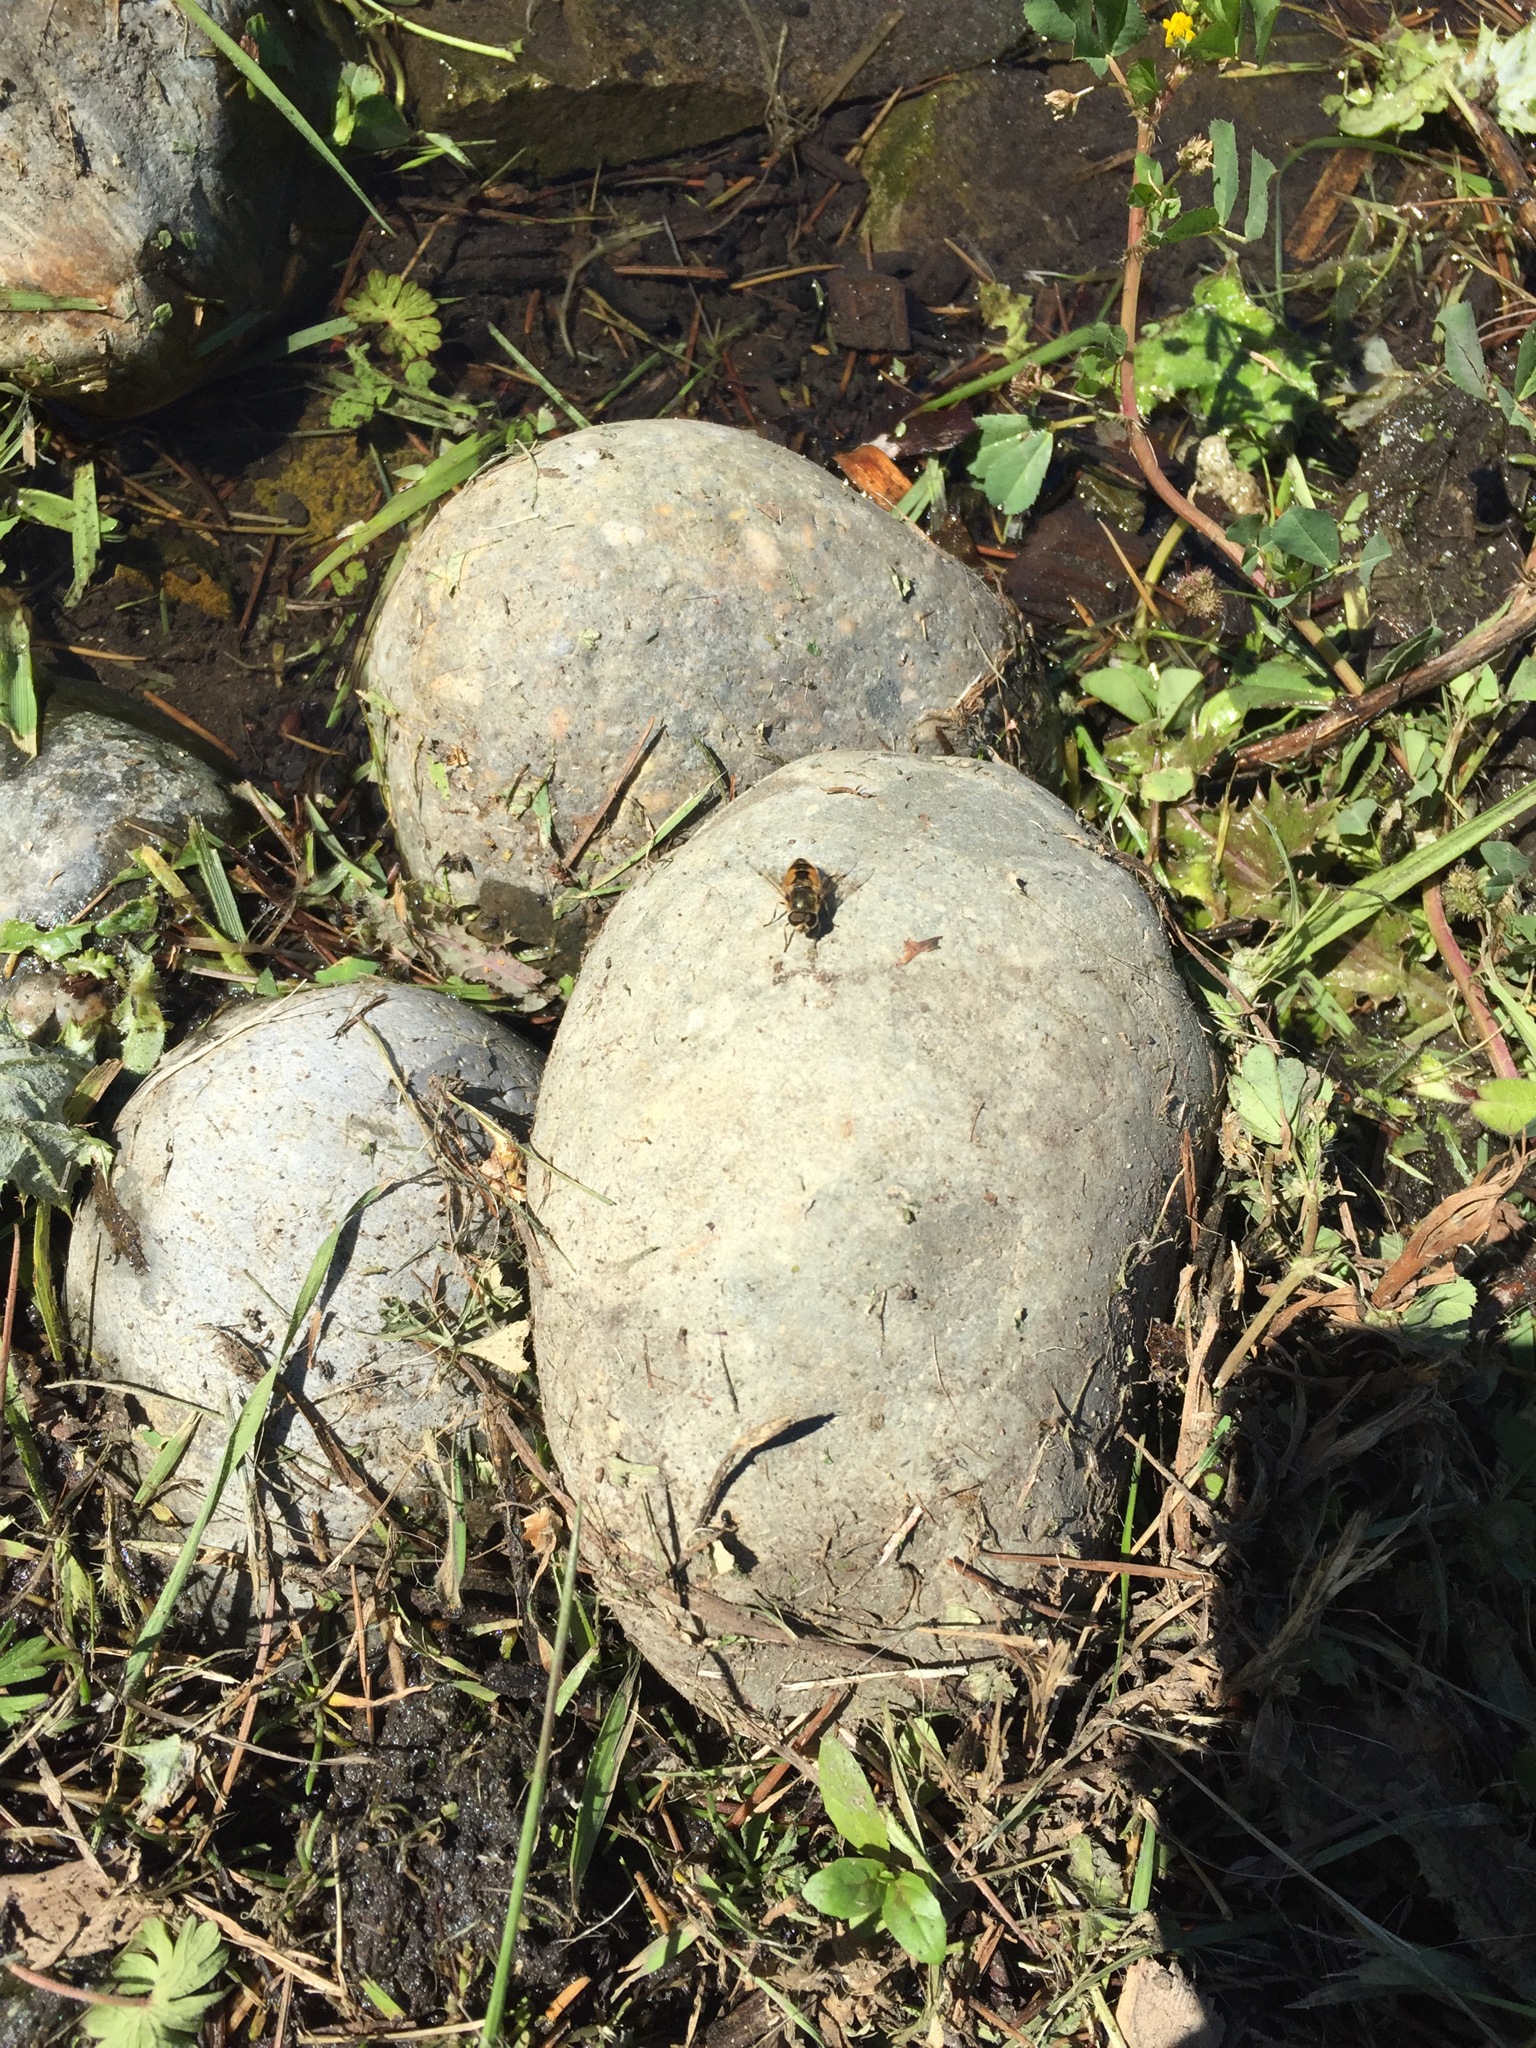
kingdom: Animalia
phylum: Arthropoda
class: Insecta
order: Diptera
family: Syrphidae
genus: Eristalis
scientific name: Eristalis arbustorum
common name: Hover fly
